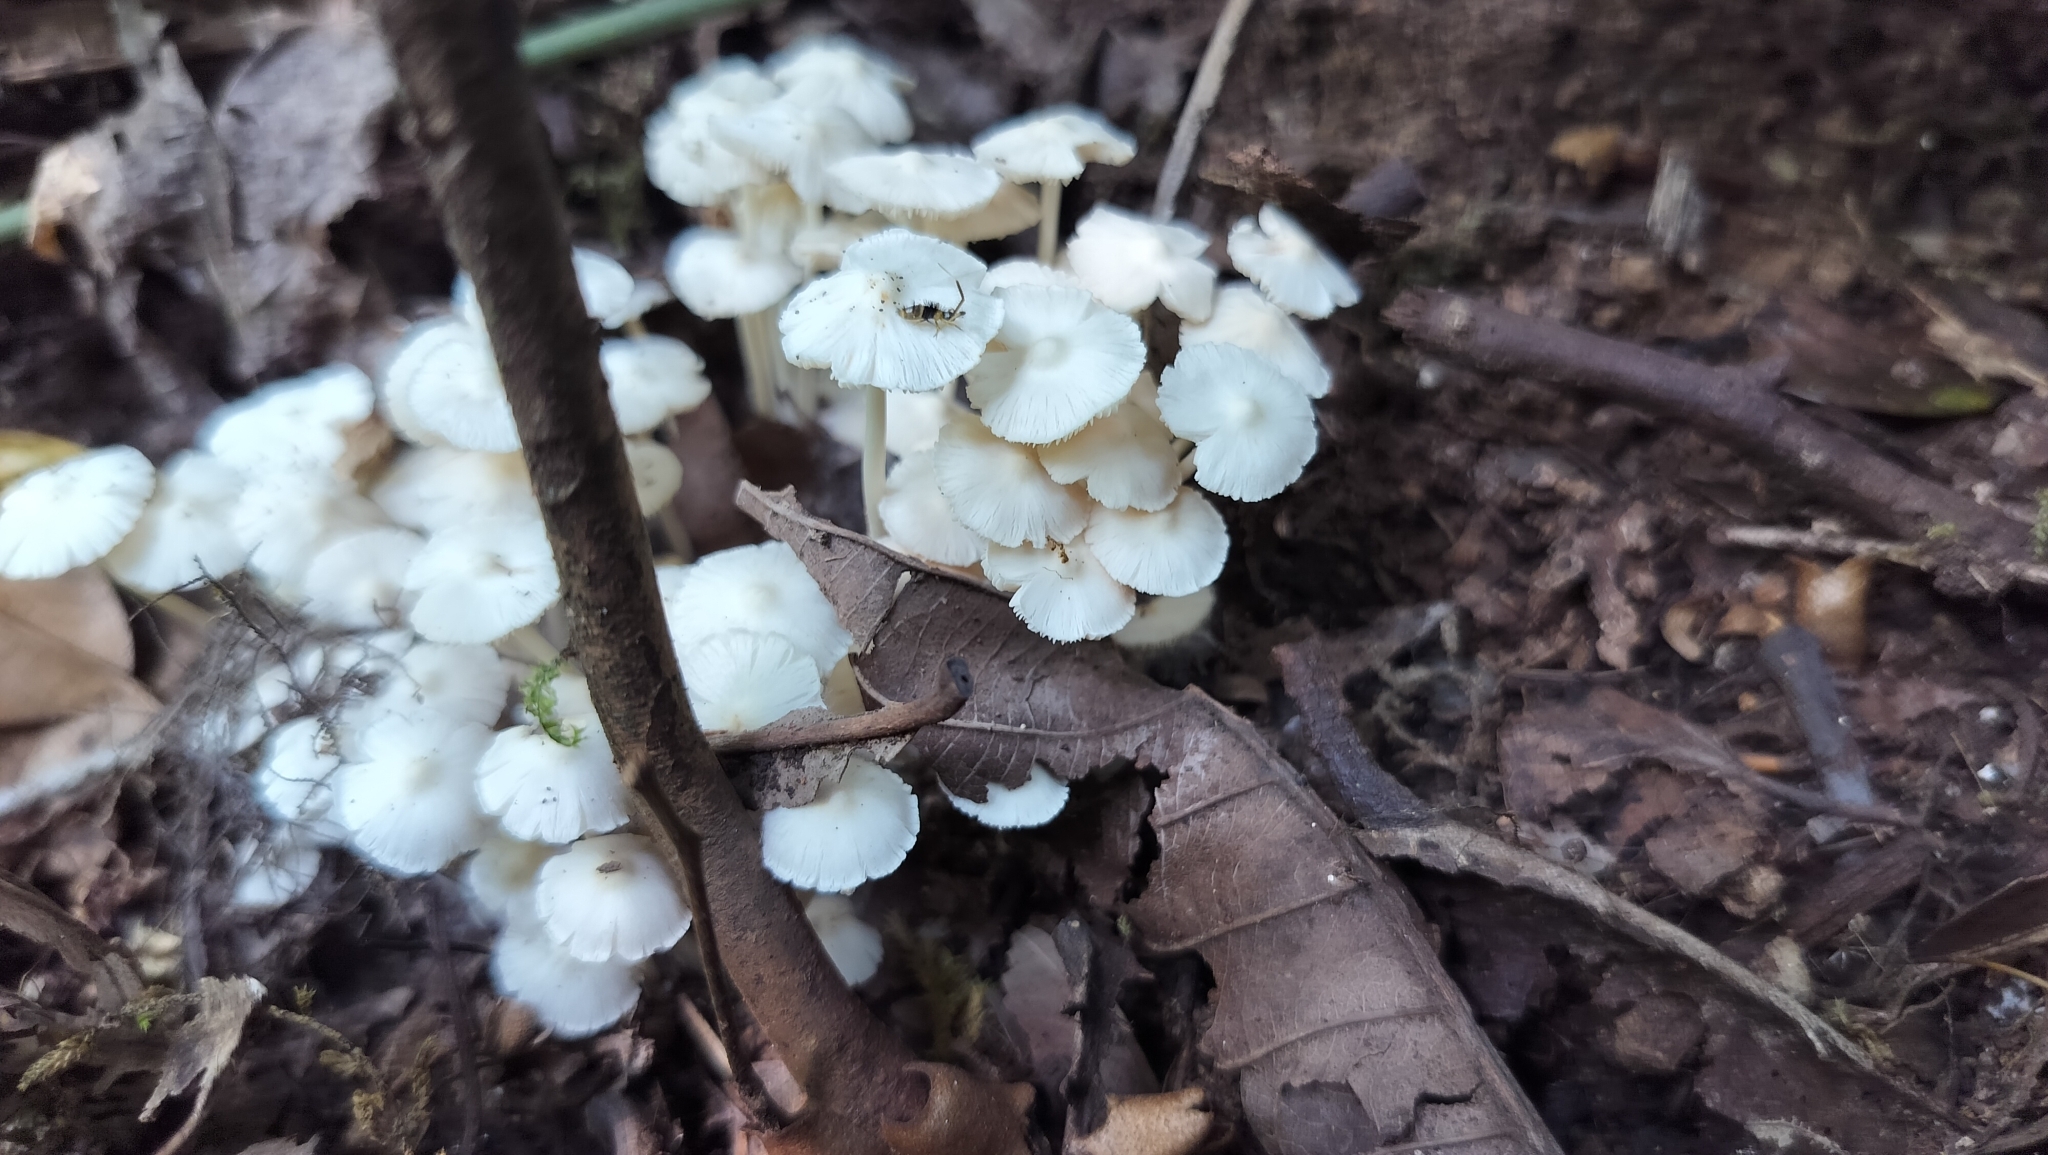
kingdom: Fungi
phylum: Basidiomycota
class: Agaricomycetes
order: Agaricales
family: Lyophyllaceae
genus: Termitomyces
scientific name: Termitomyces microcarpus
